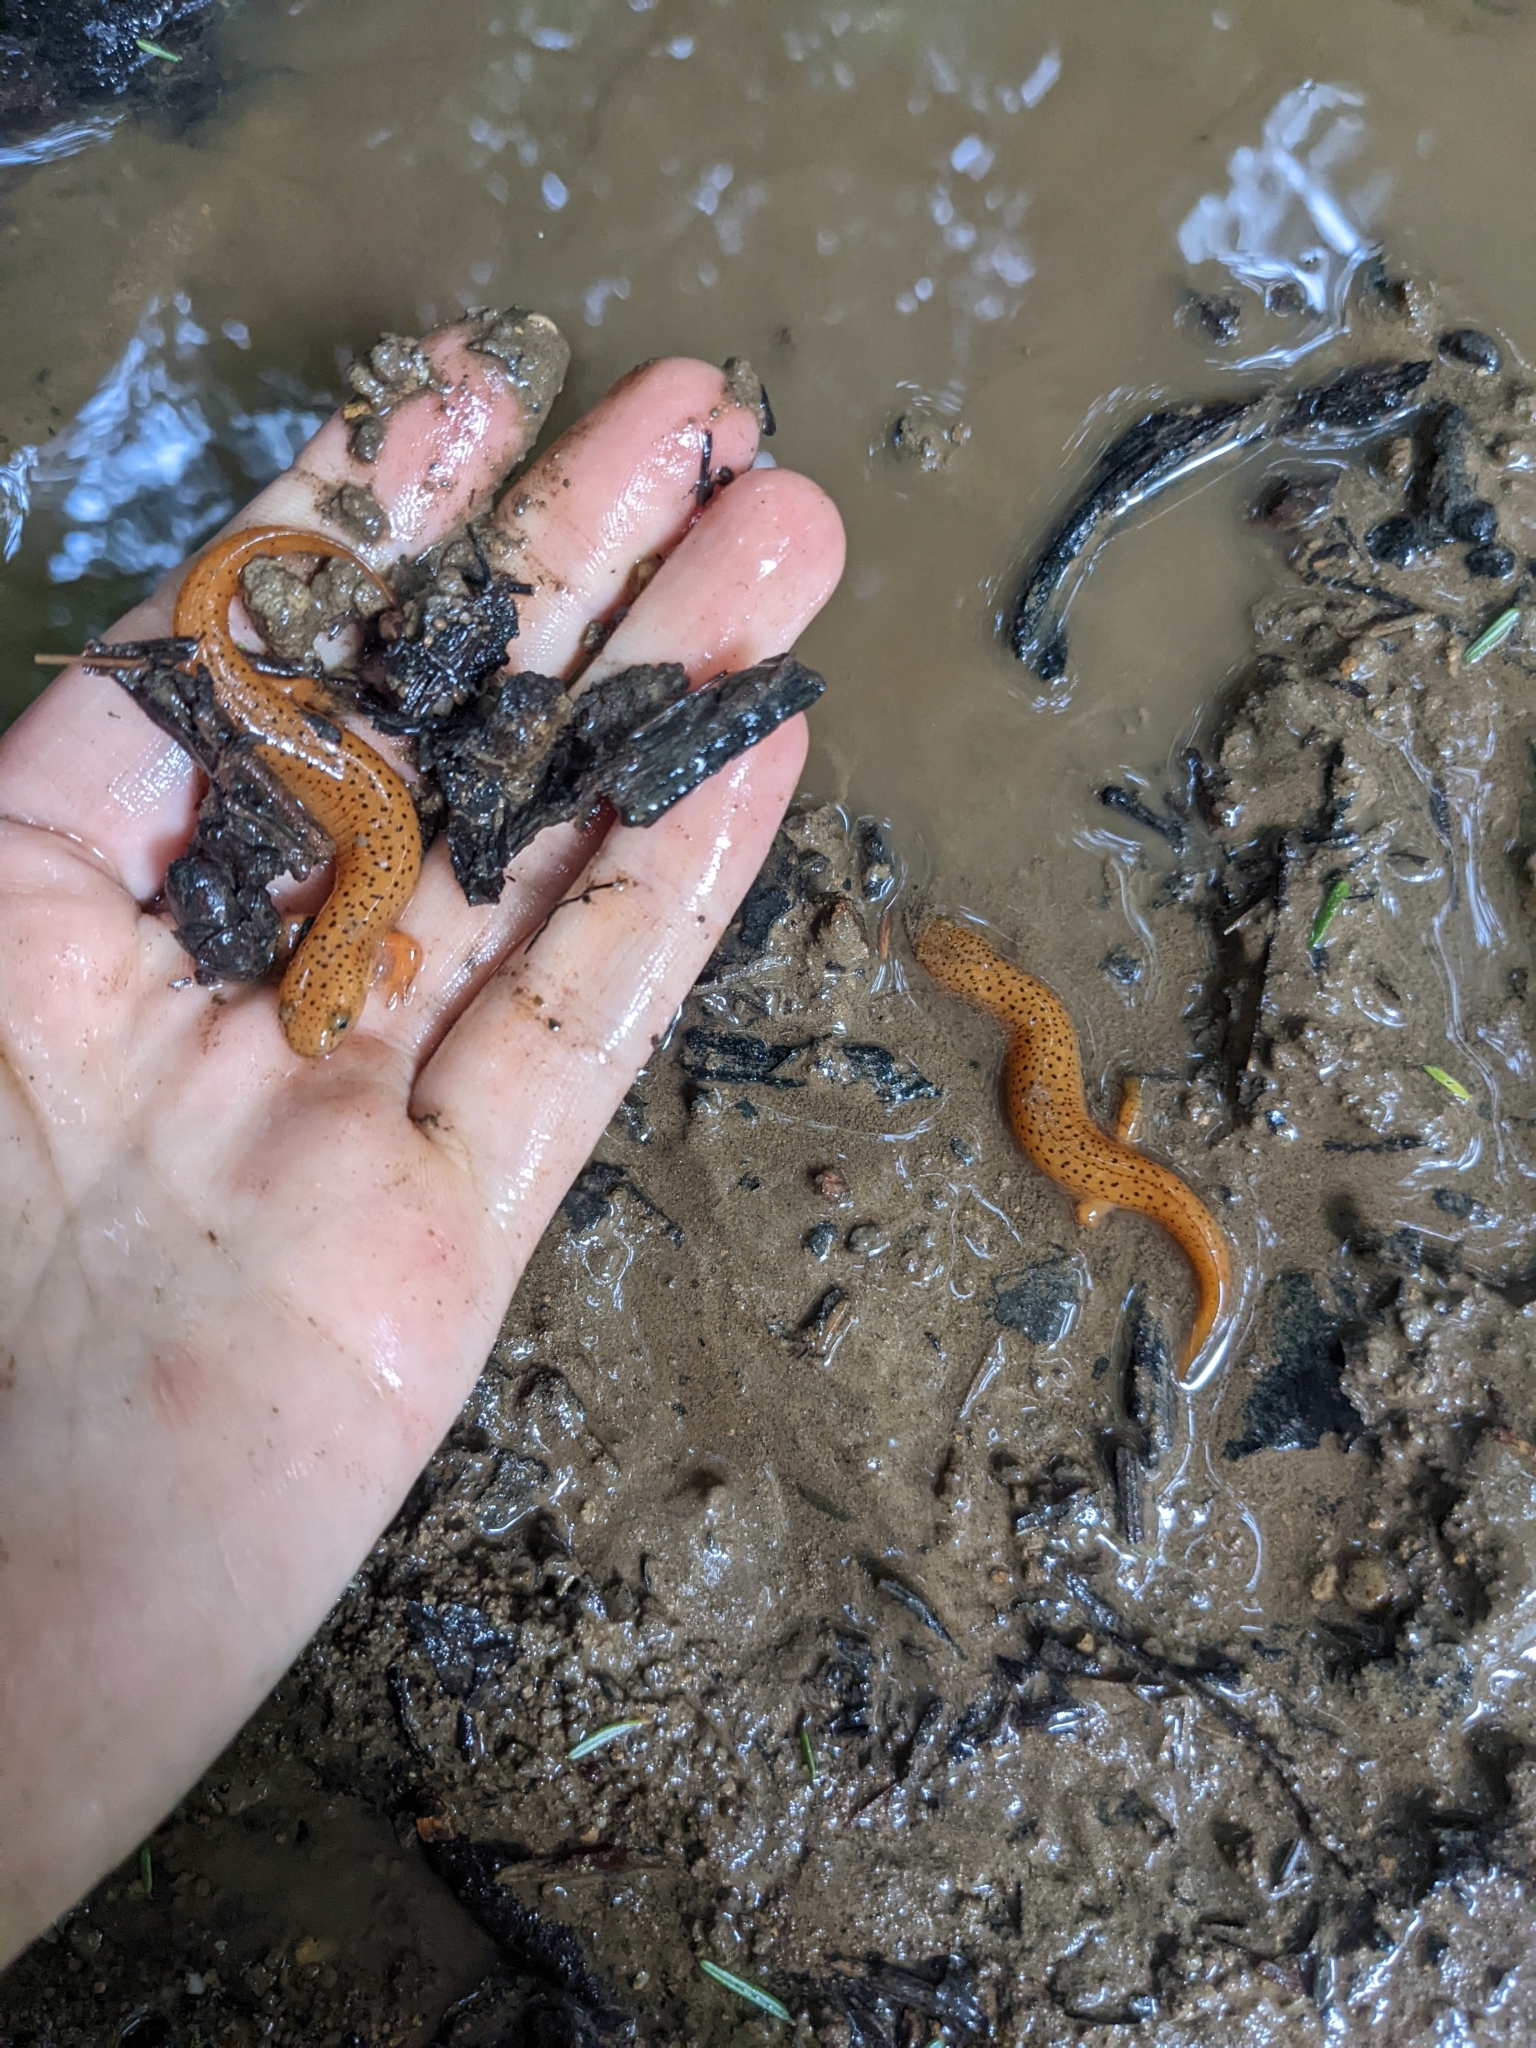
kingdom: Animalia
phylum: Chordata
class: Amphibia
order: Caudata
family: Plethodontidae
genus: Pseudotriton
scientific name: Pseudotriton ruber
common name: Red salamander
